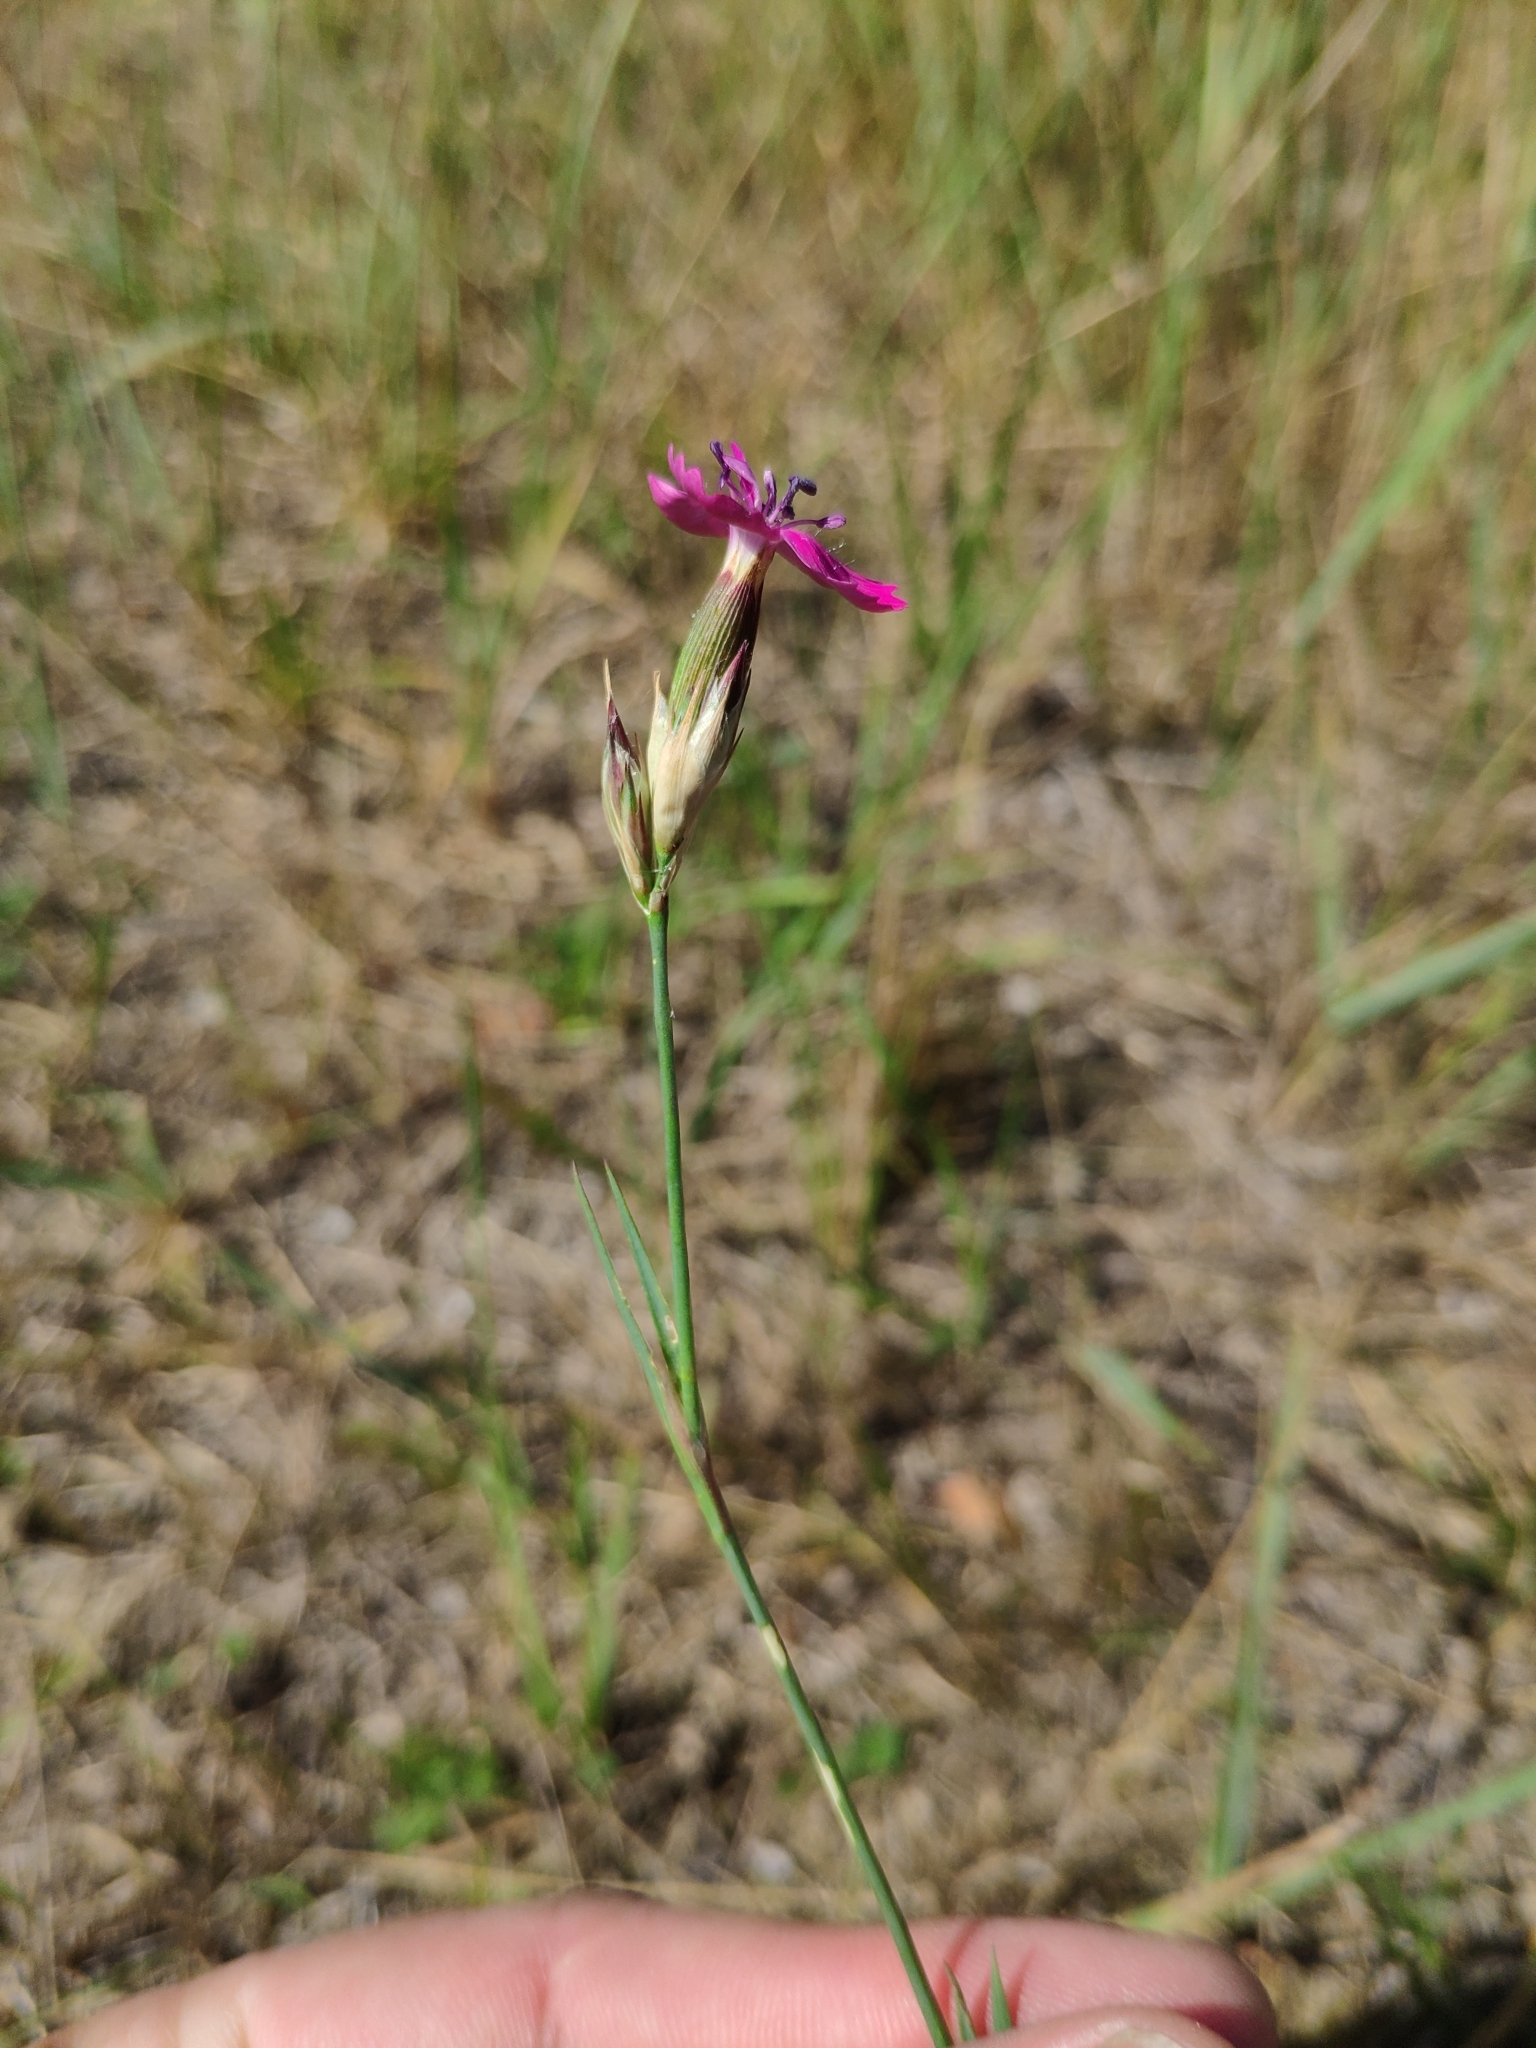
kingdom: Plantae
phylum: Tracheophyta
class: Magnoliopsida
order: Caryophyllales
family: Caryophyllaceae
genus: Dianthus
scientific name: Dianthus borbasii
